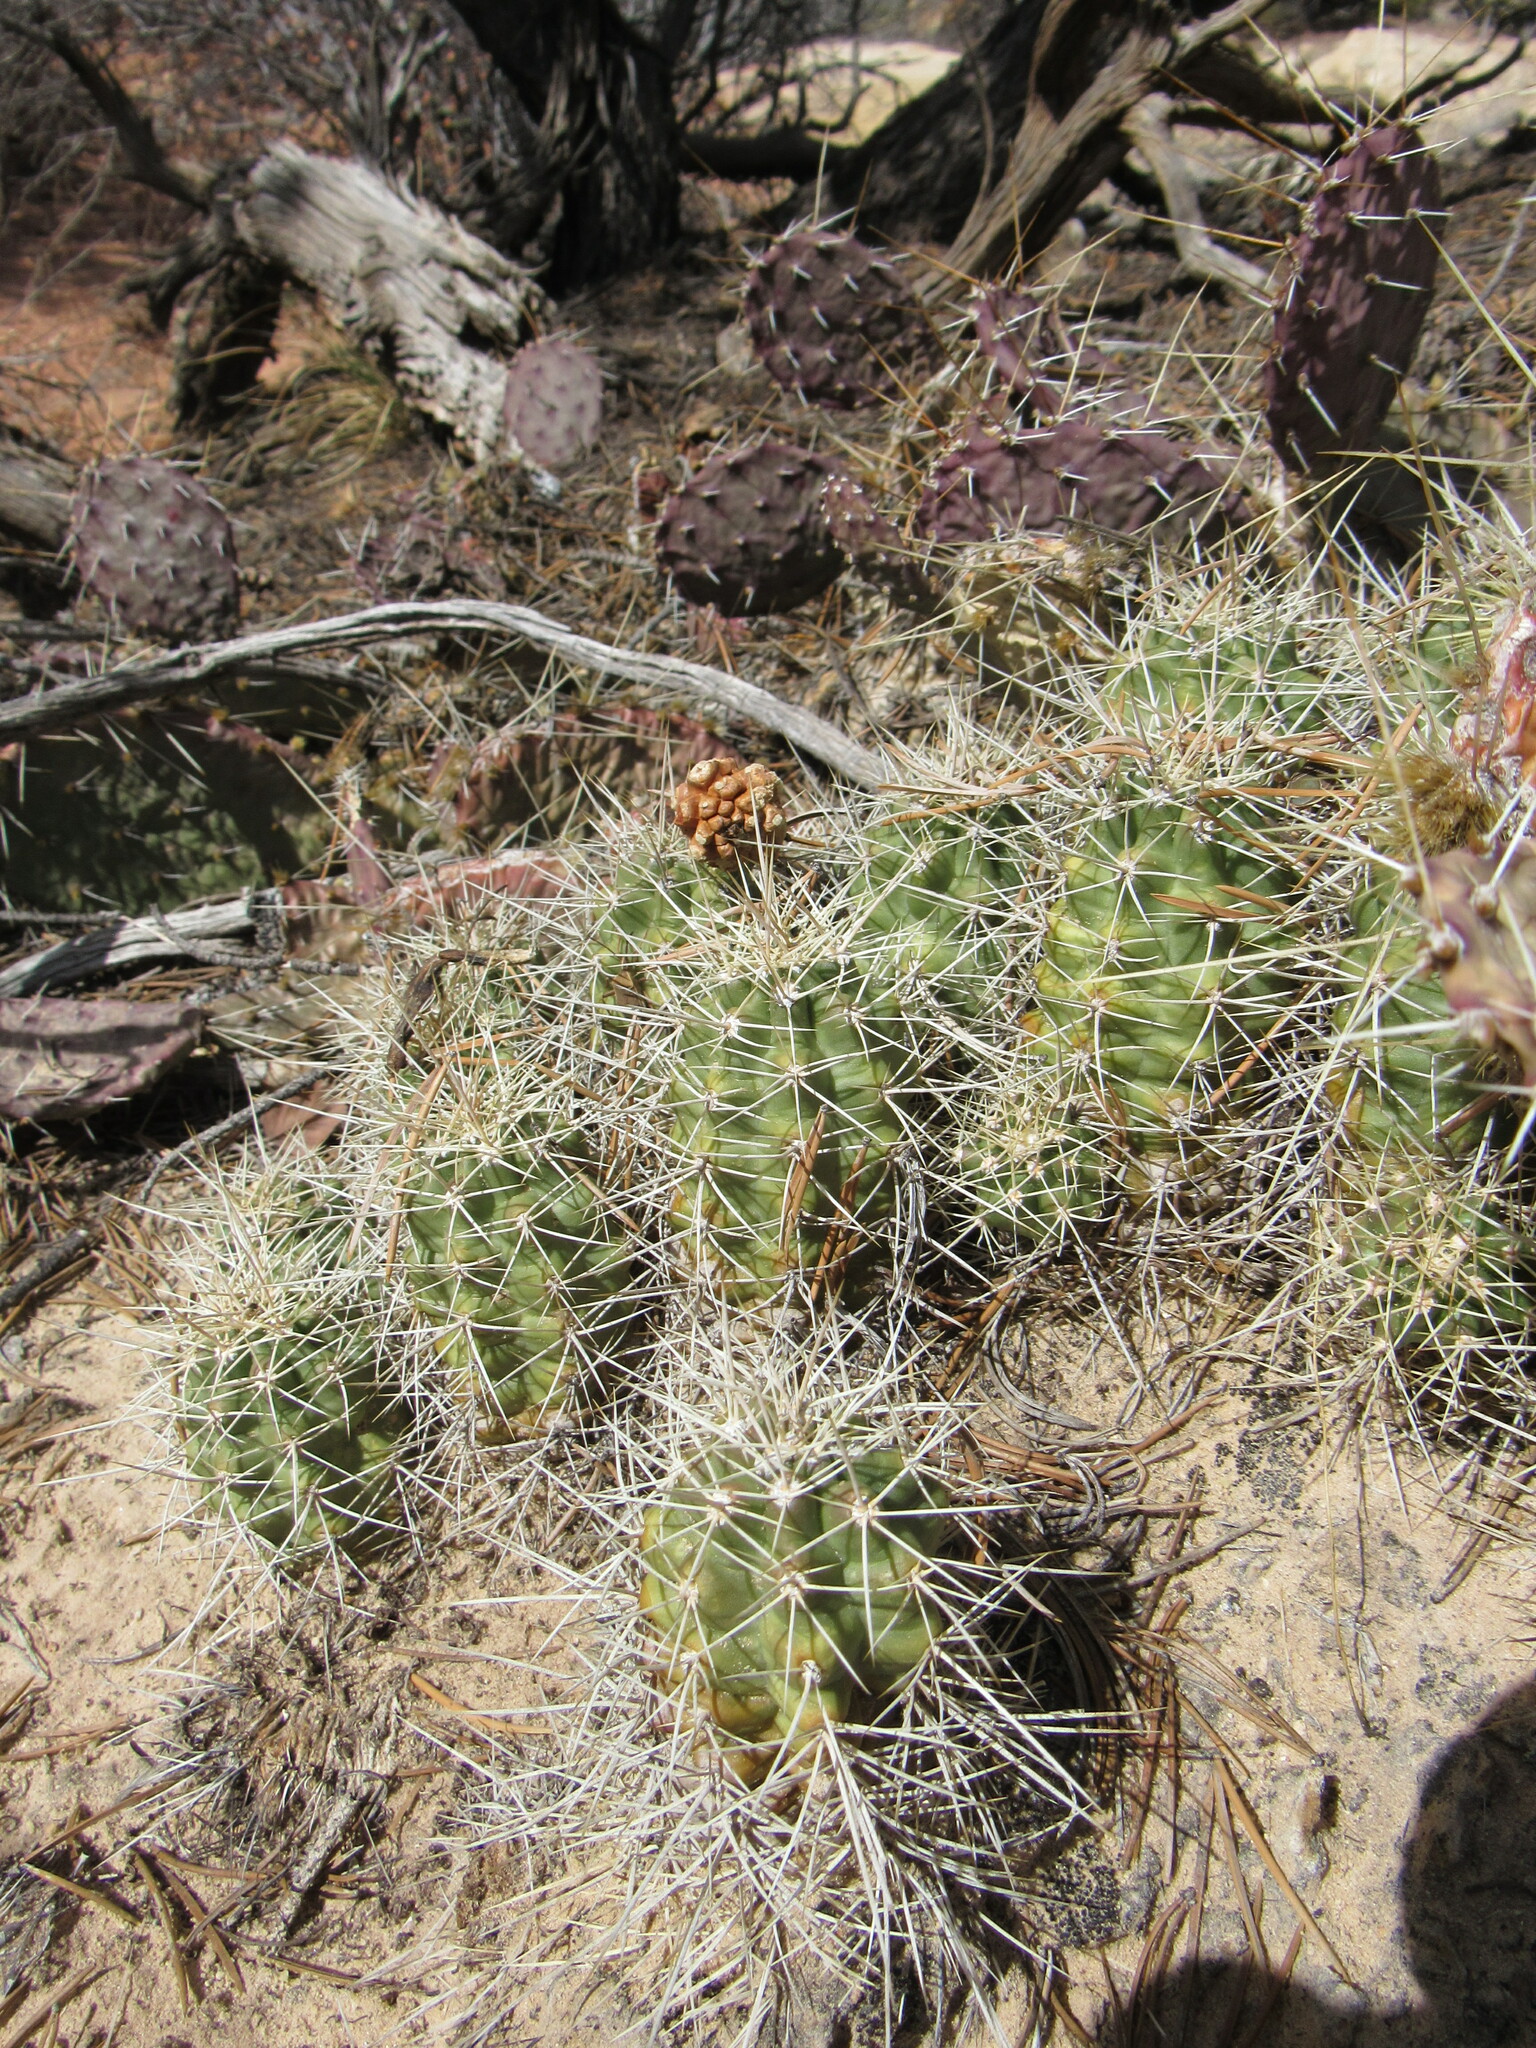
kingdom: Plantae
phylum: Tracheophyta
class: Magnoliopsida
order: Caryophyllales
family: Cactaceae
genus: Echinocereus
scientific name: Echinocereus triglochidiatus
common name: Claretcup hedgehog
